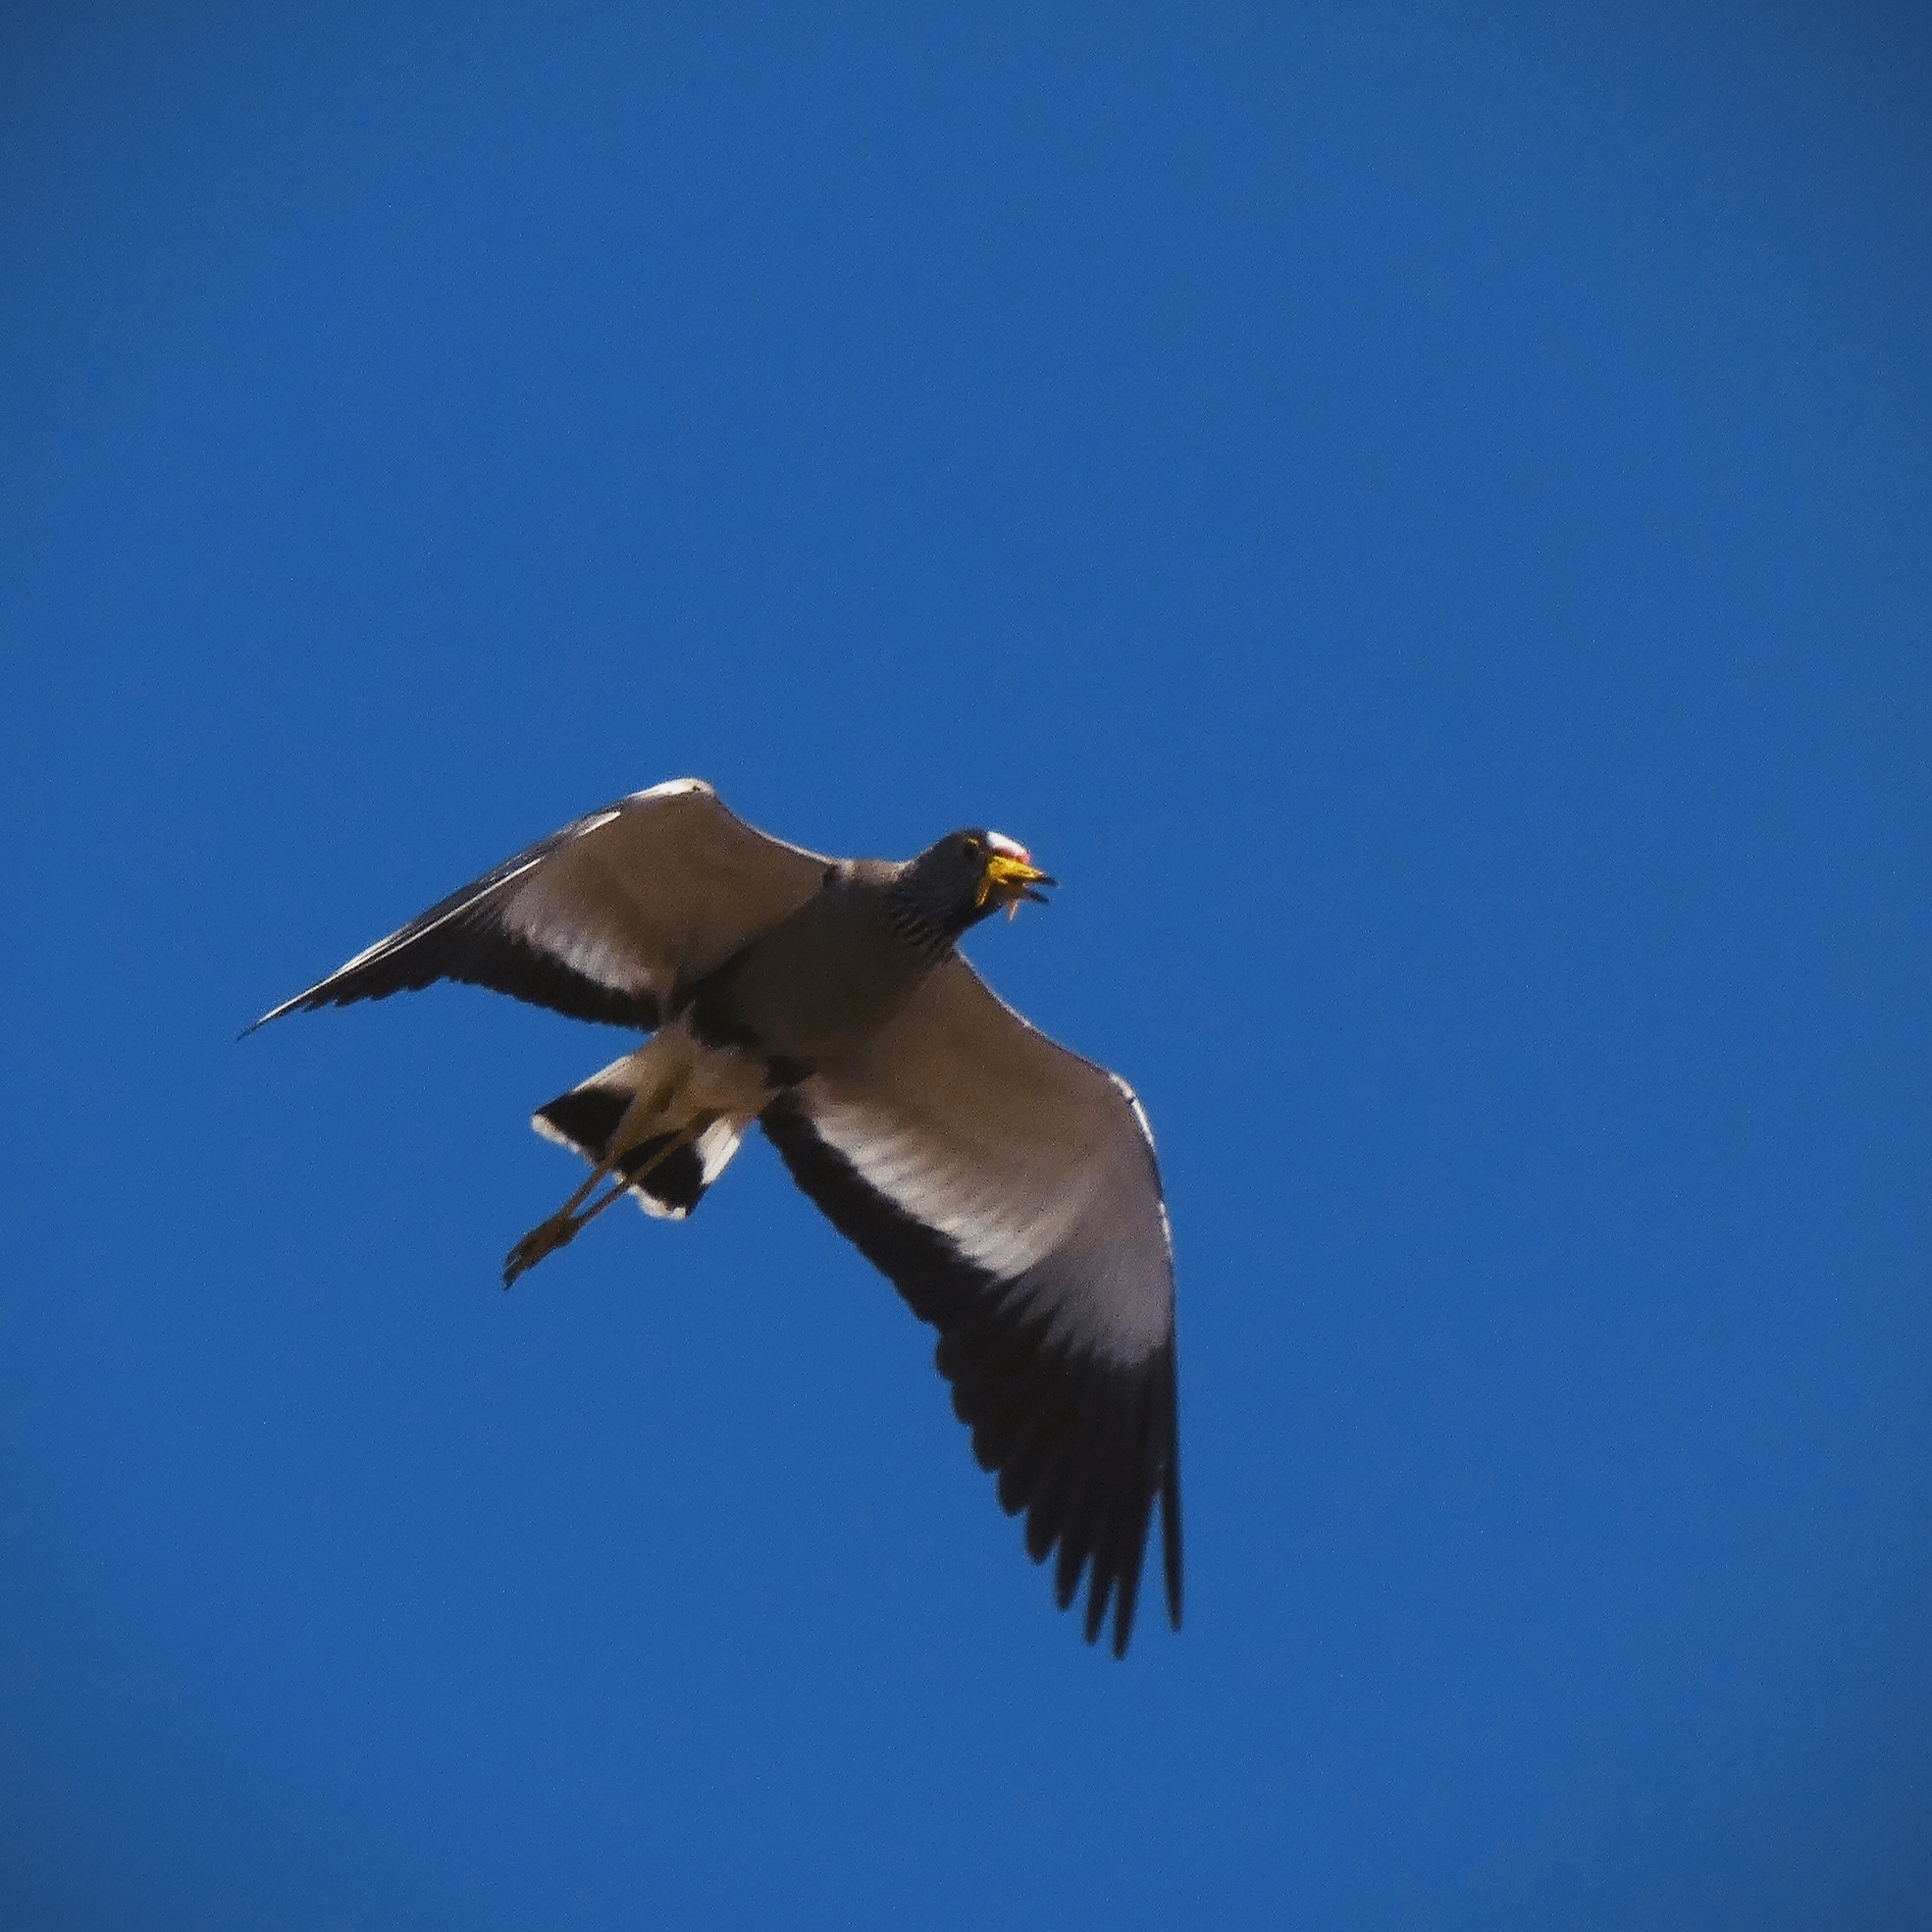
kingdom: Animalia
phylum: Chordata
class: Aves
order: Charadriiformes
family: Charadriidae
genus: Vanellus
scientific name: Vanellus senegallus
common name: African wattled lapwing
